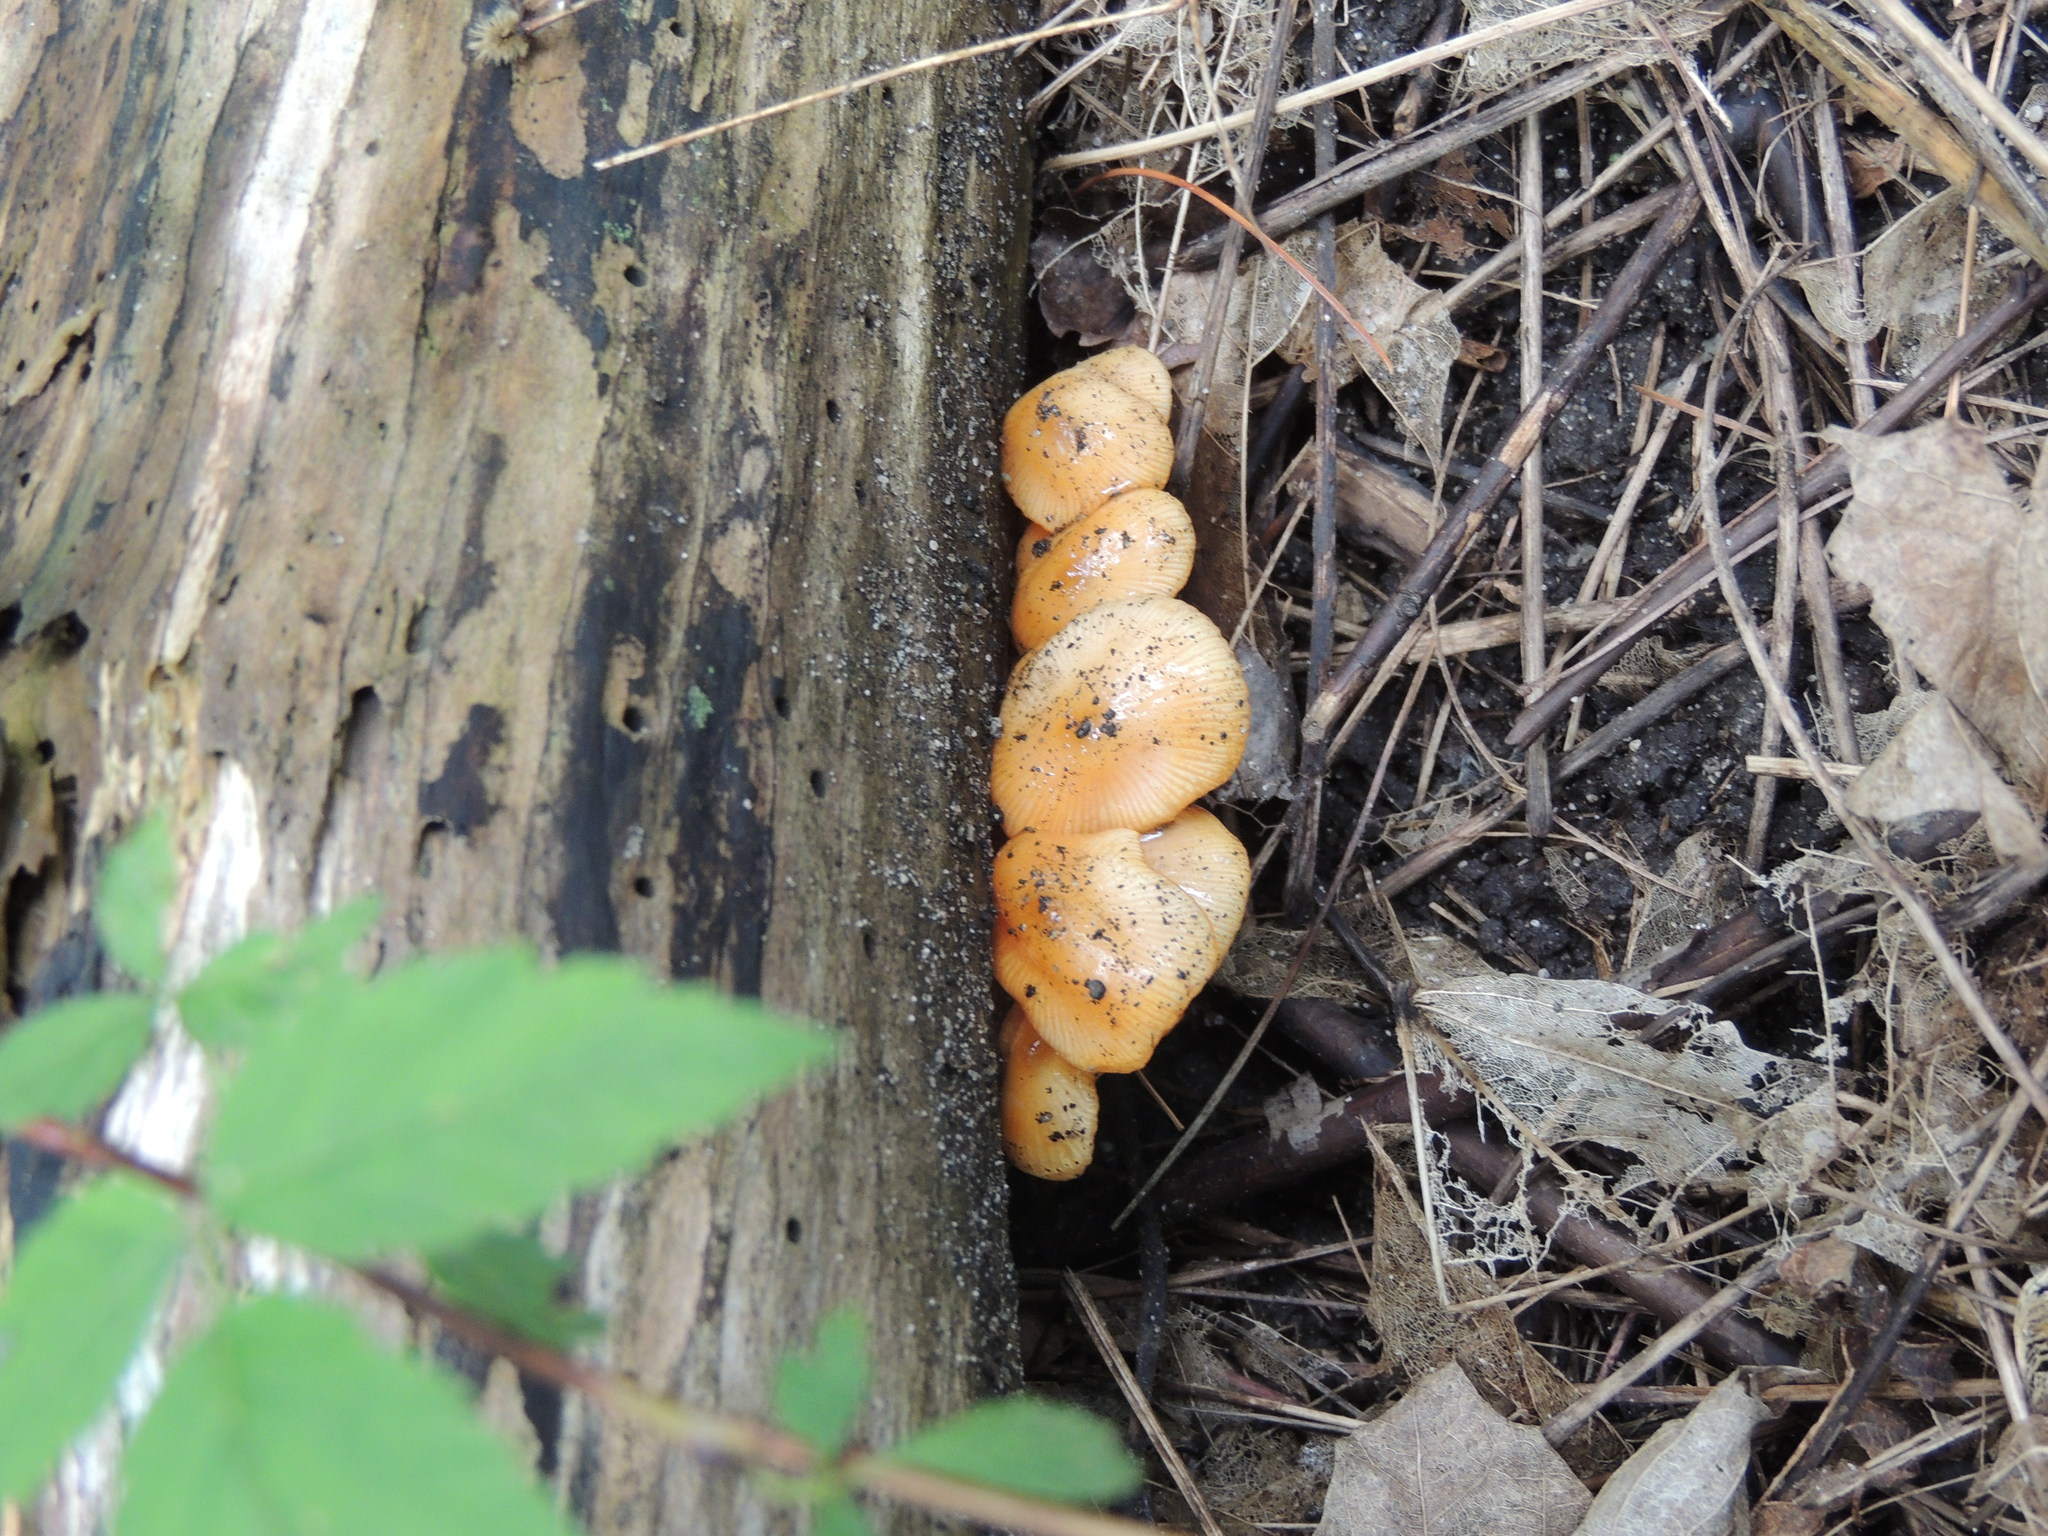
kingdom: Fungi
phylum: Basidiomycota
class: Agaricomycetes
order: Agaricales
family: Mycenaceae
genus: Mycena
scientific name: Mycena leaiana
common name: Orange mycena
